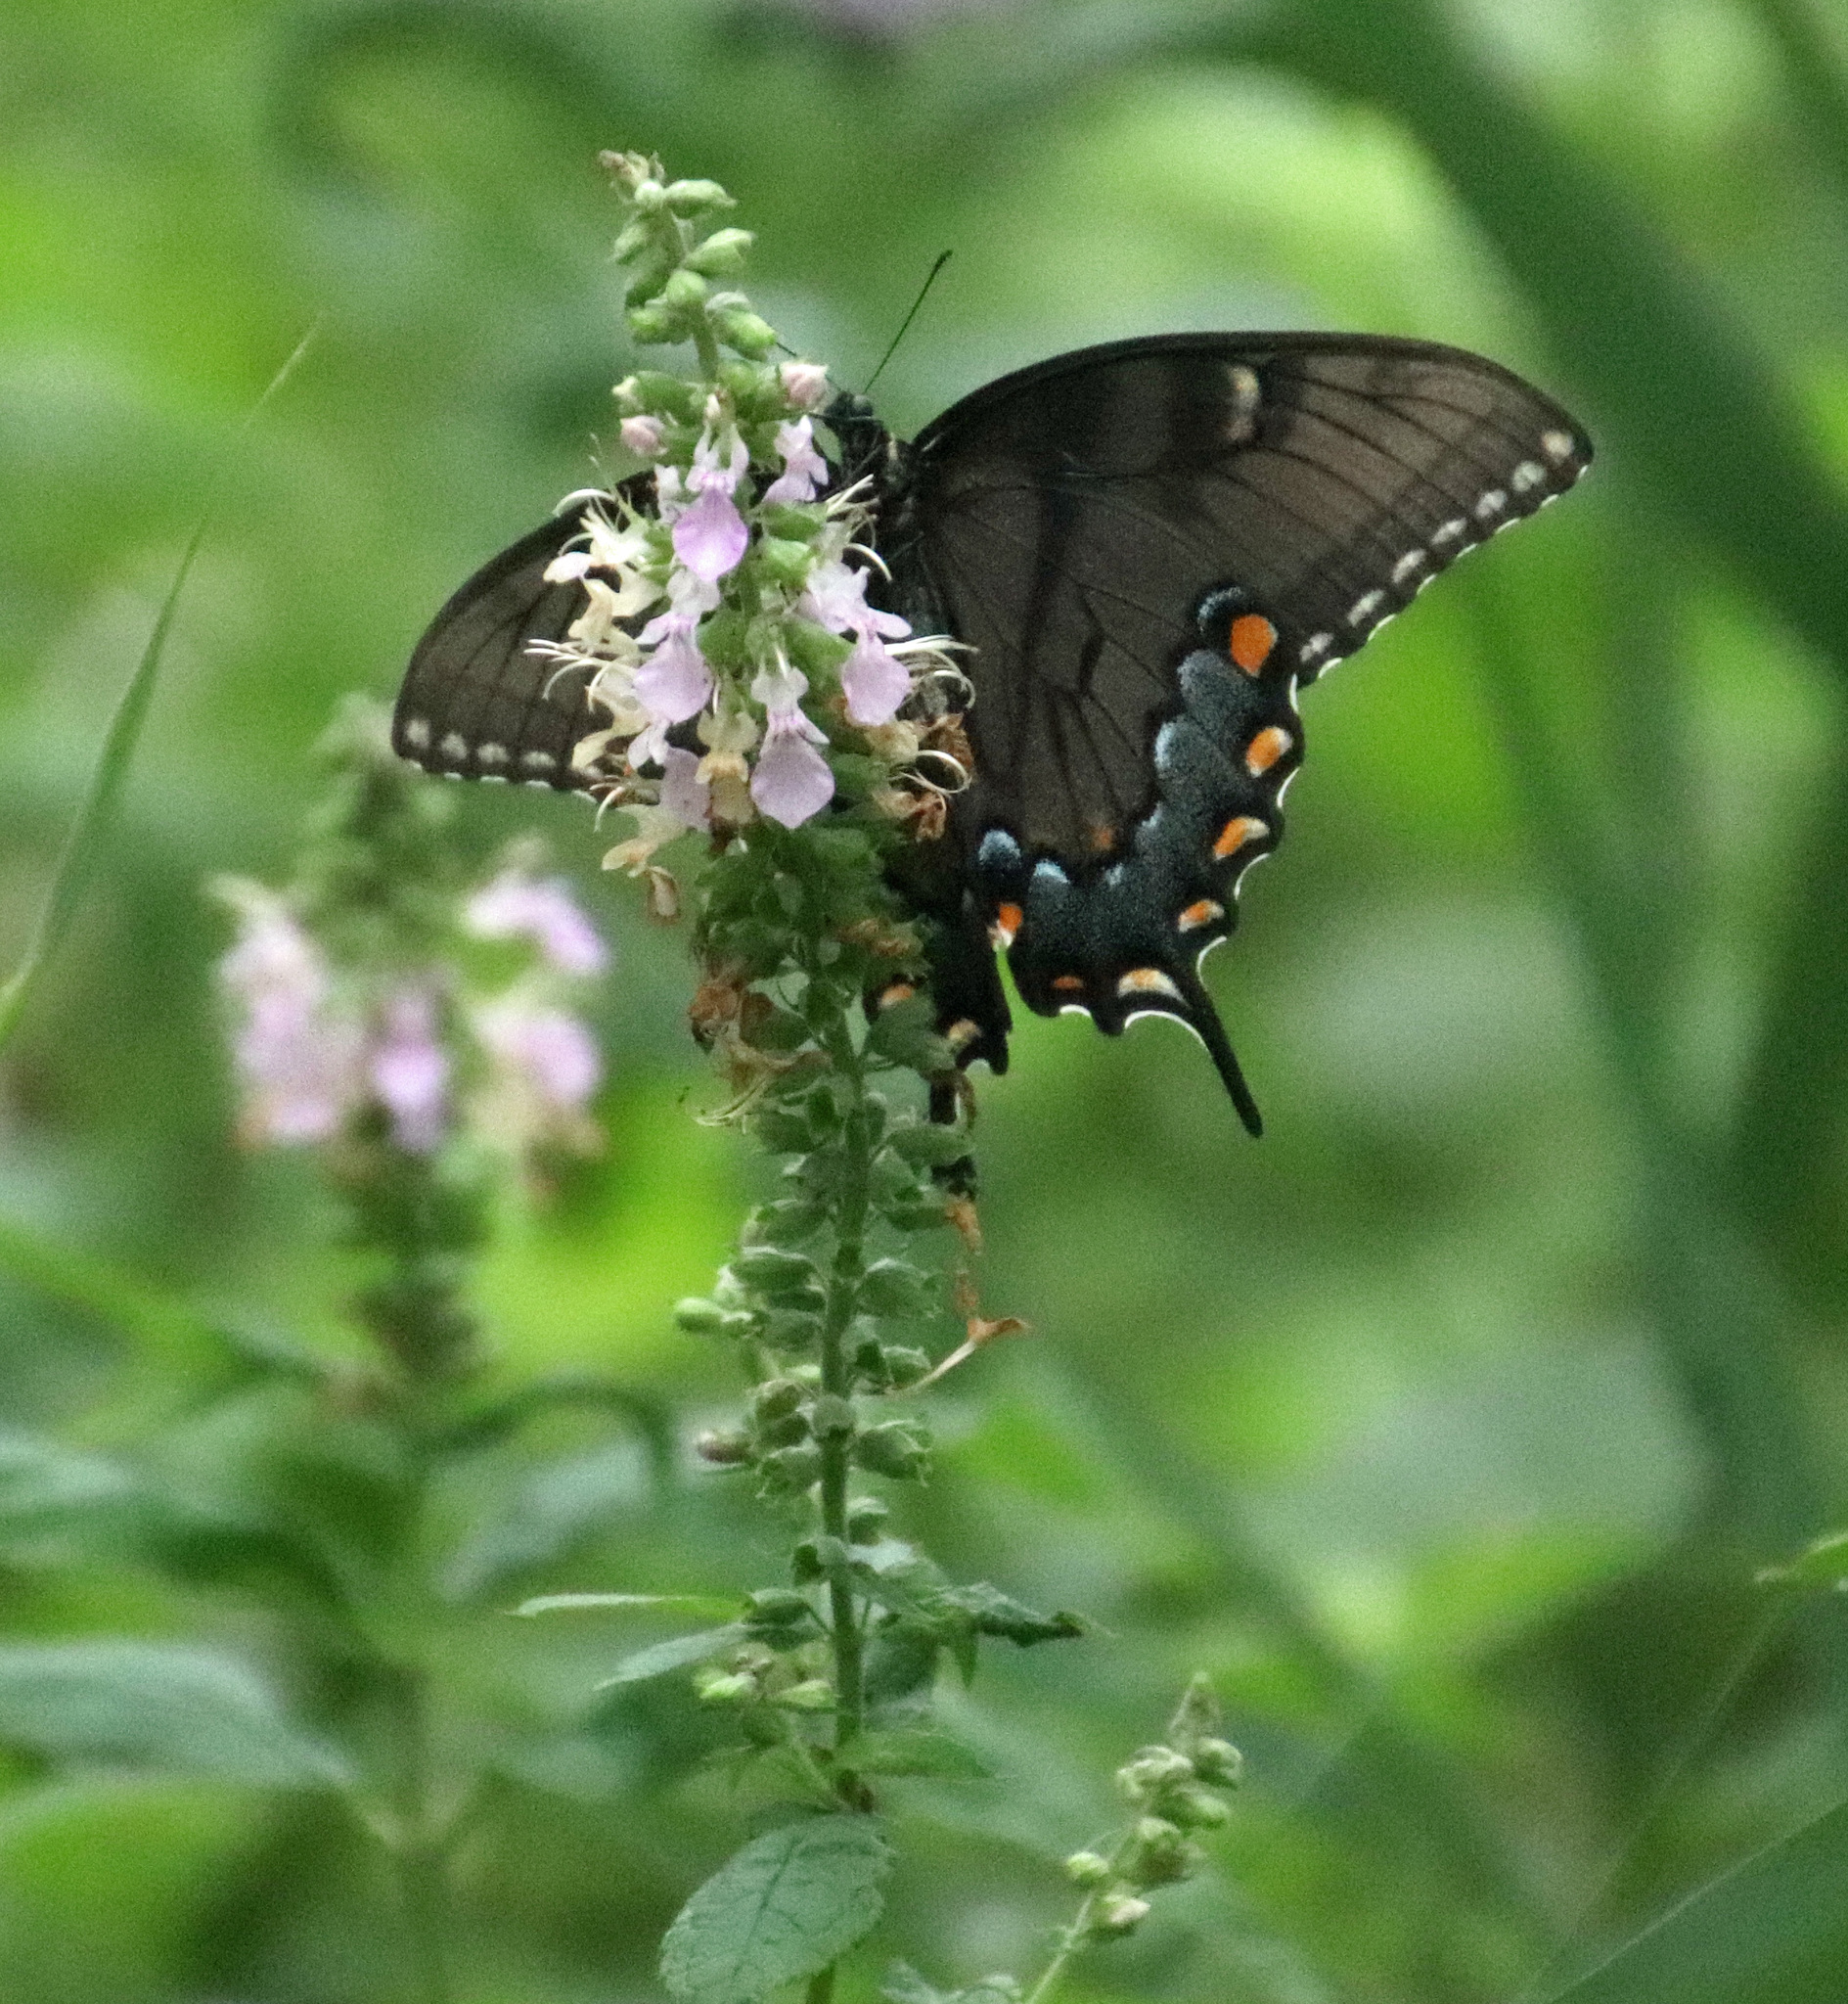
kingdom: Animalia
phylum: Arthropoda
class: Insecta
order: Lepidoptera
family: Papilionidae
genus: Papilio
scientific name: Papilio glaucus
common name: Tiger swallowtail
